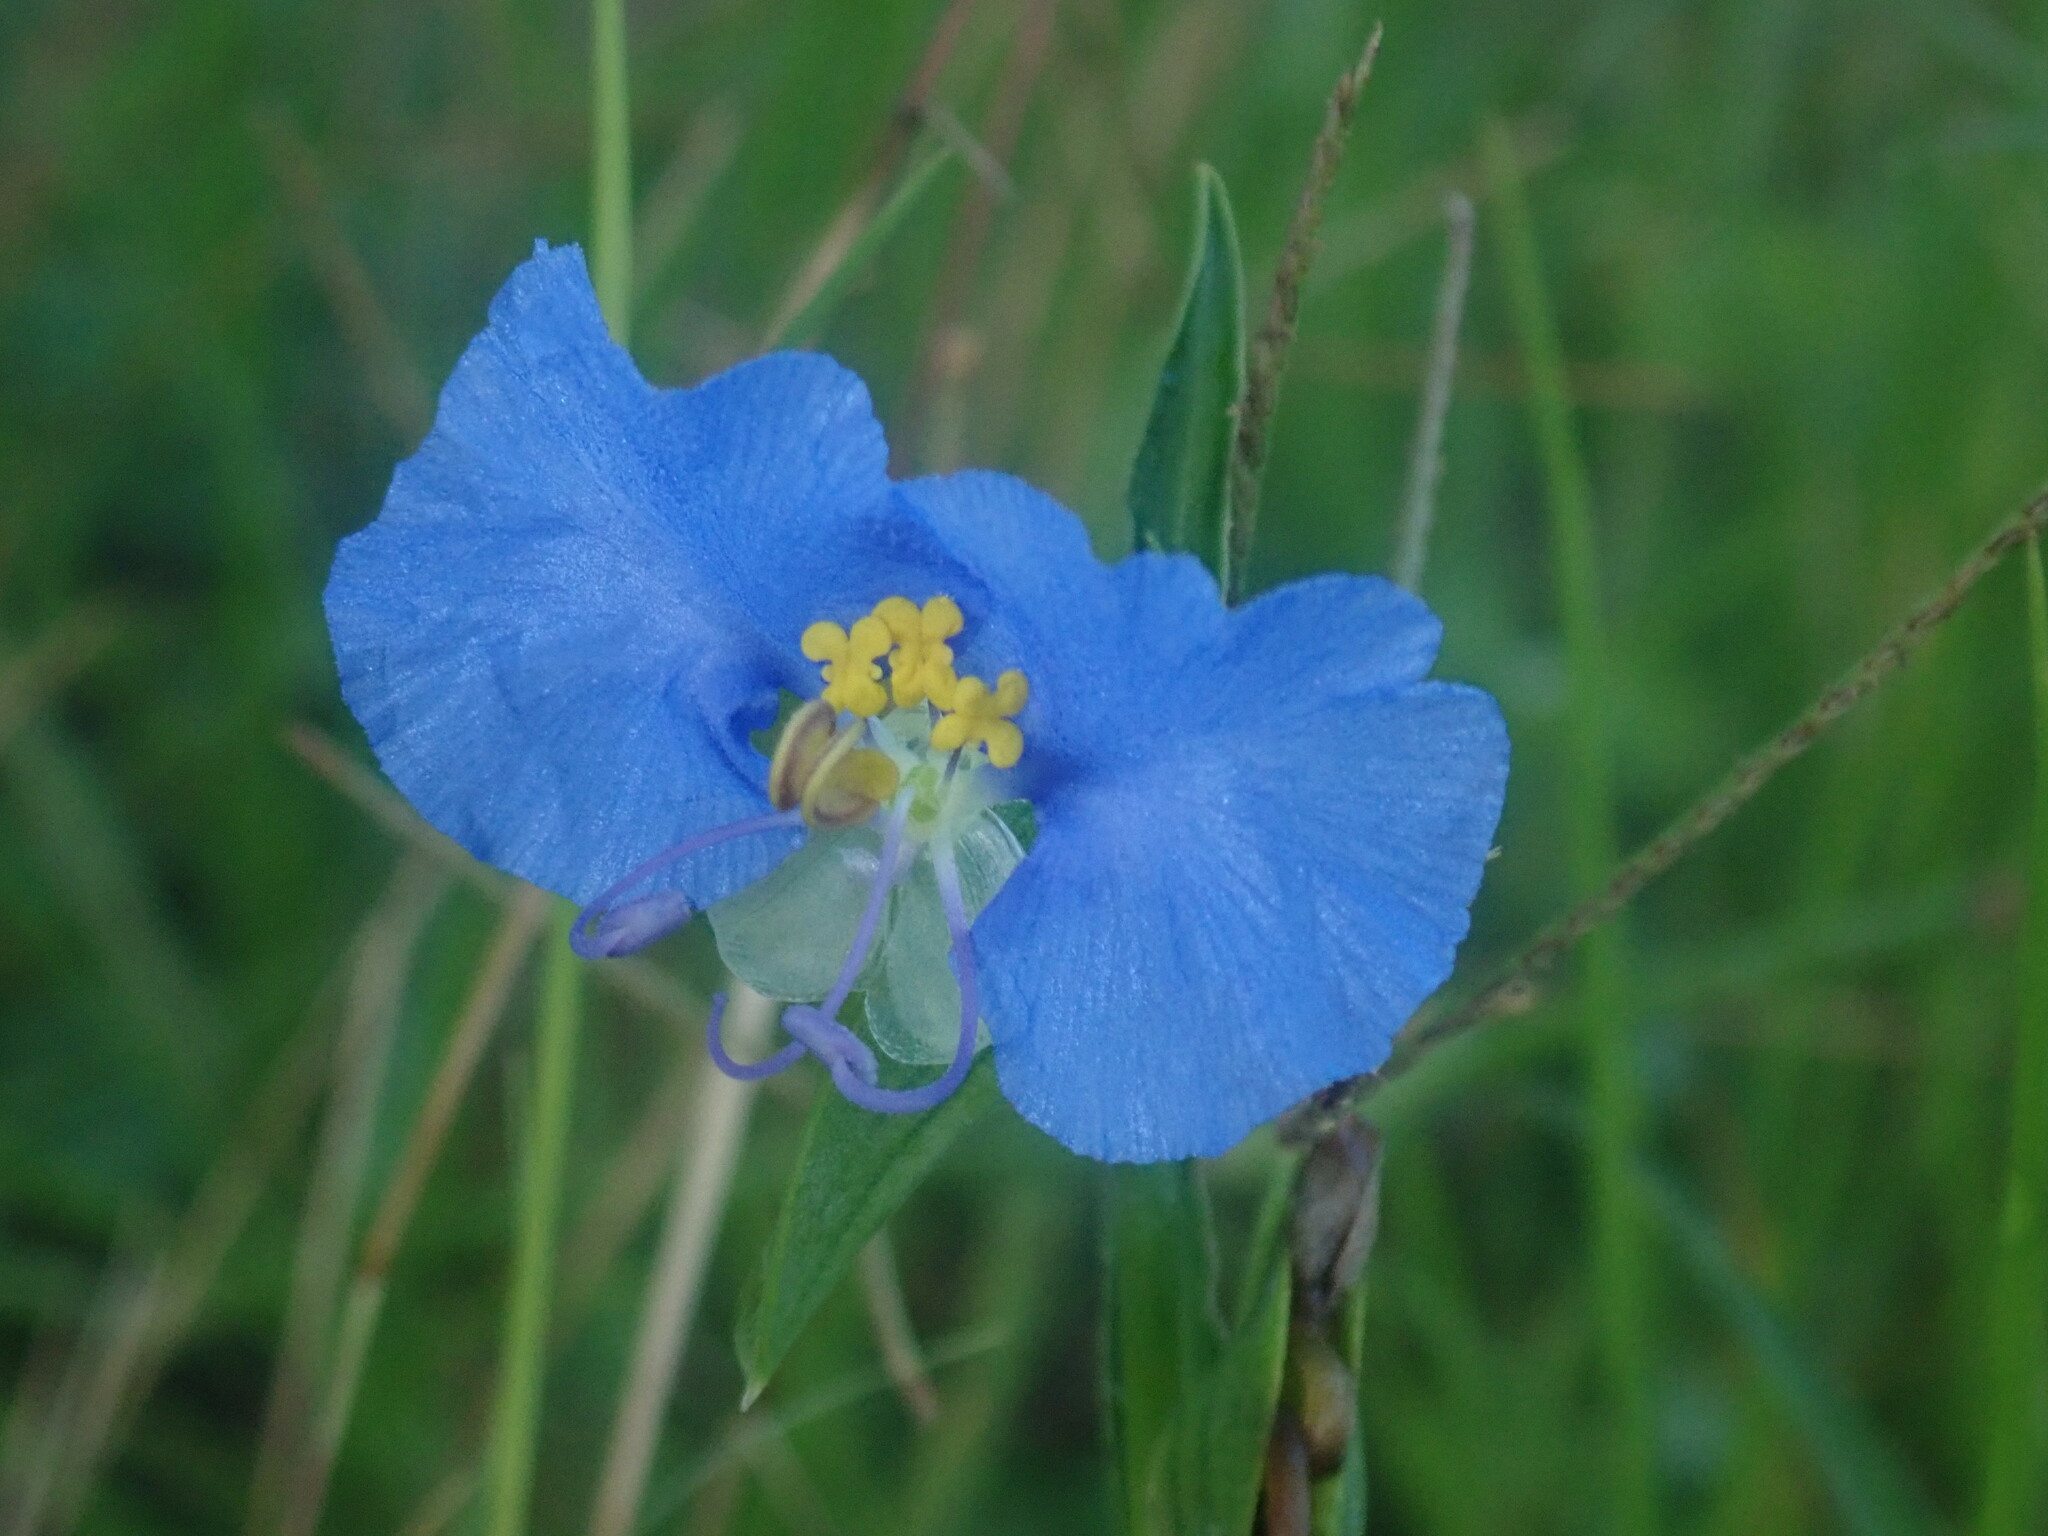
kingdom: Plantae
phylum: Tracheophyta
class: Liliopsida
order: Commelinales
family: Commelinaceae
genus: Commelina
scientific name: Commelina erecta
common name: Blousel blommetjie
